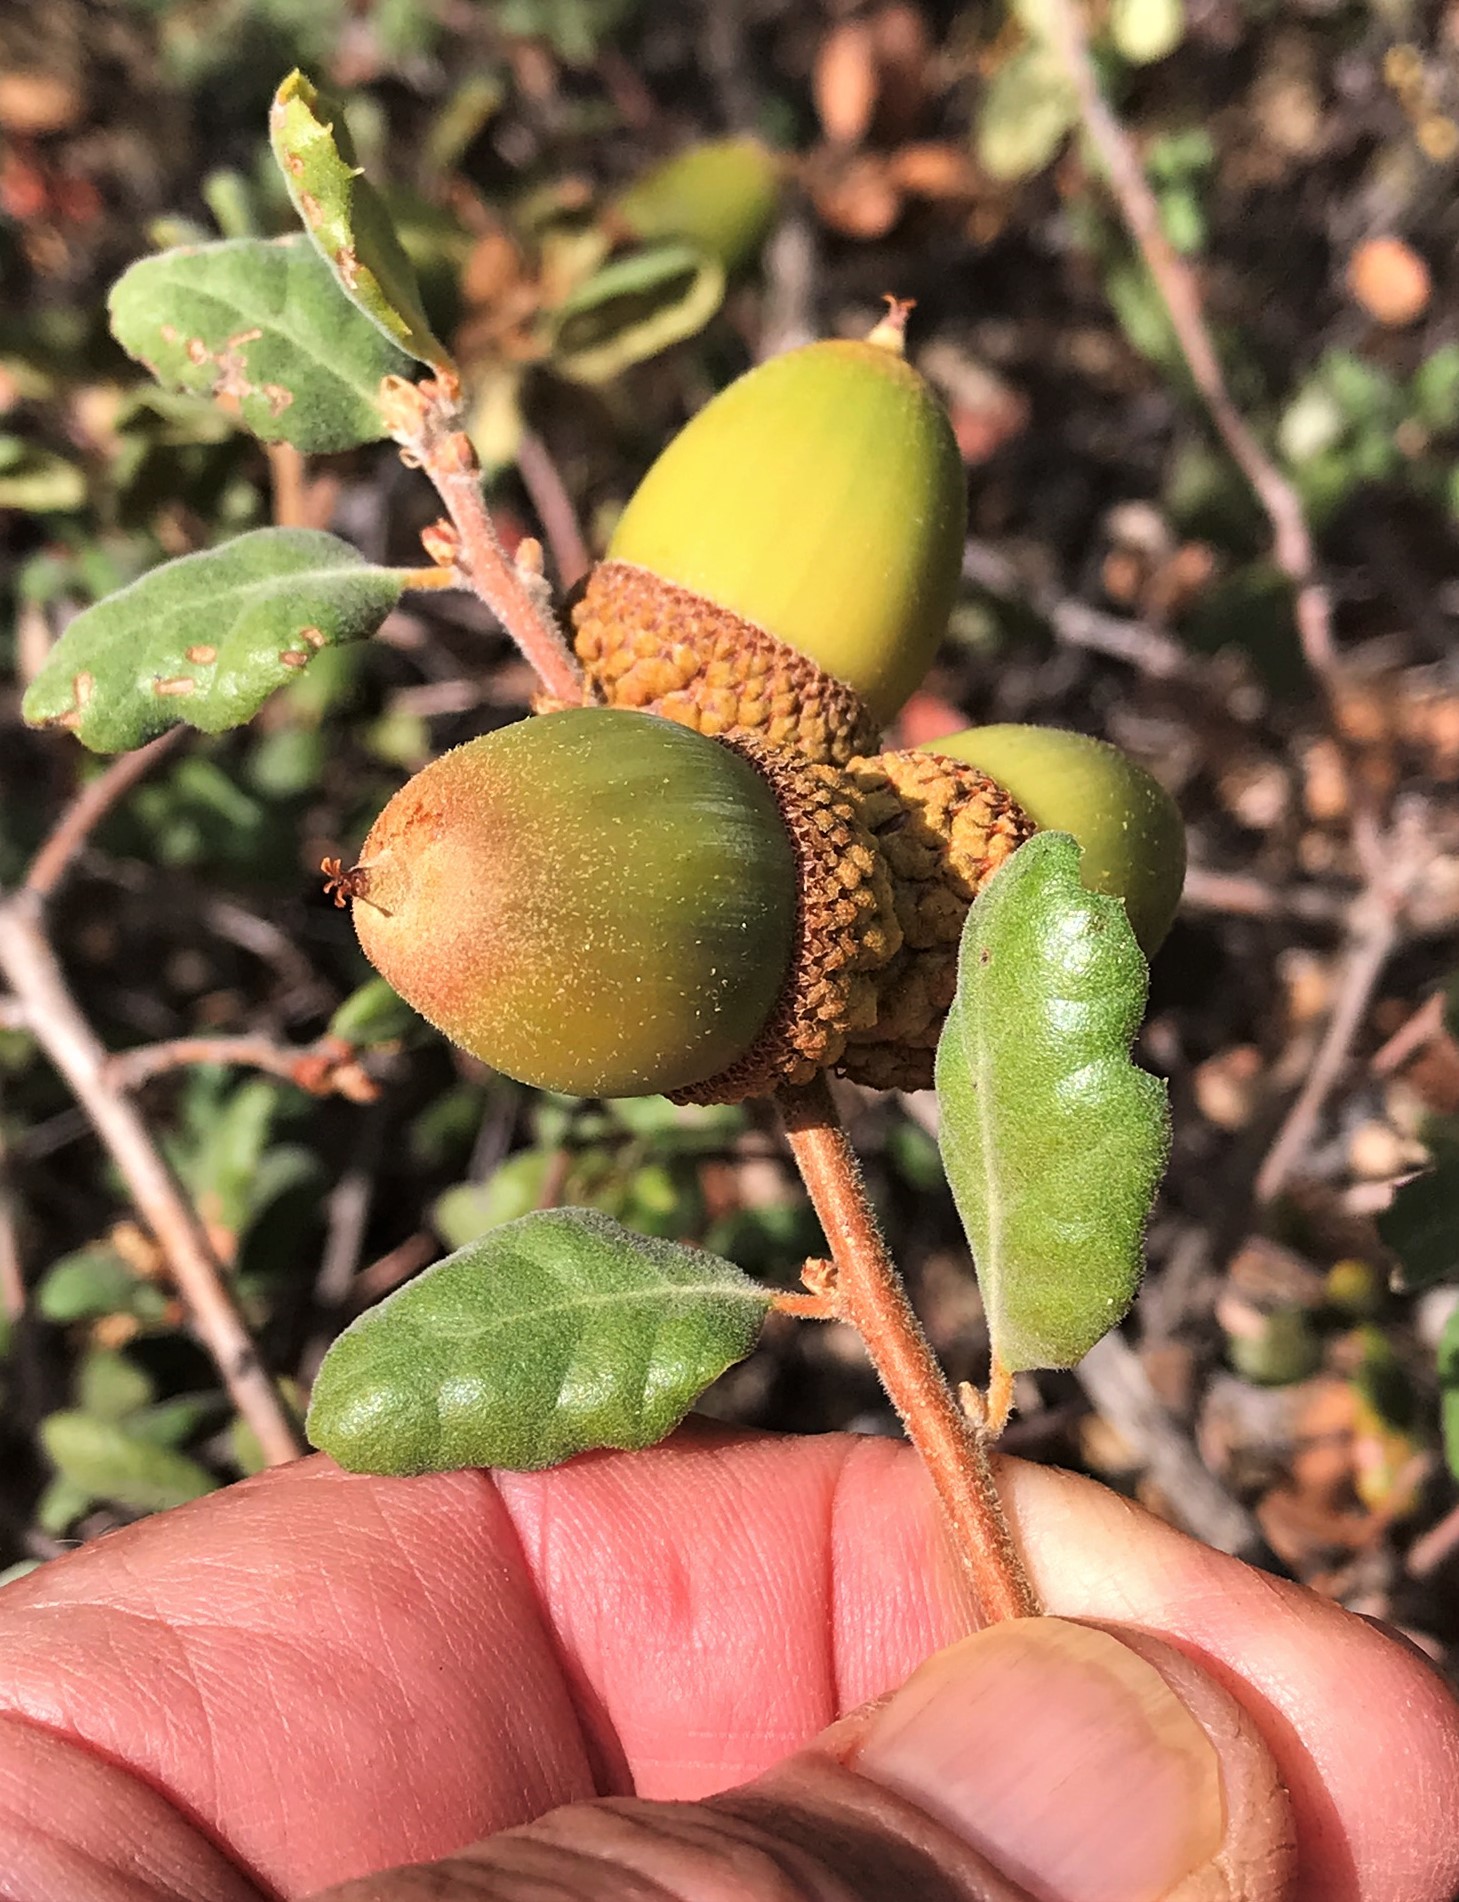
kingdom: Plantae
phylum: Tracheophyta
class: Magnoliopsida
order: Fagales
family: Fagaceae
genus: Quercus
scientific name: Quercus durata
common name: Leather oak
